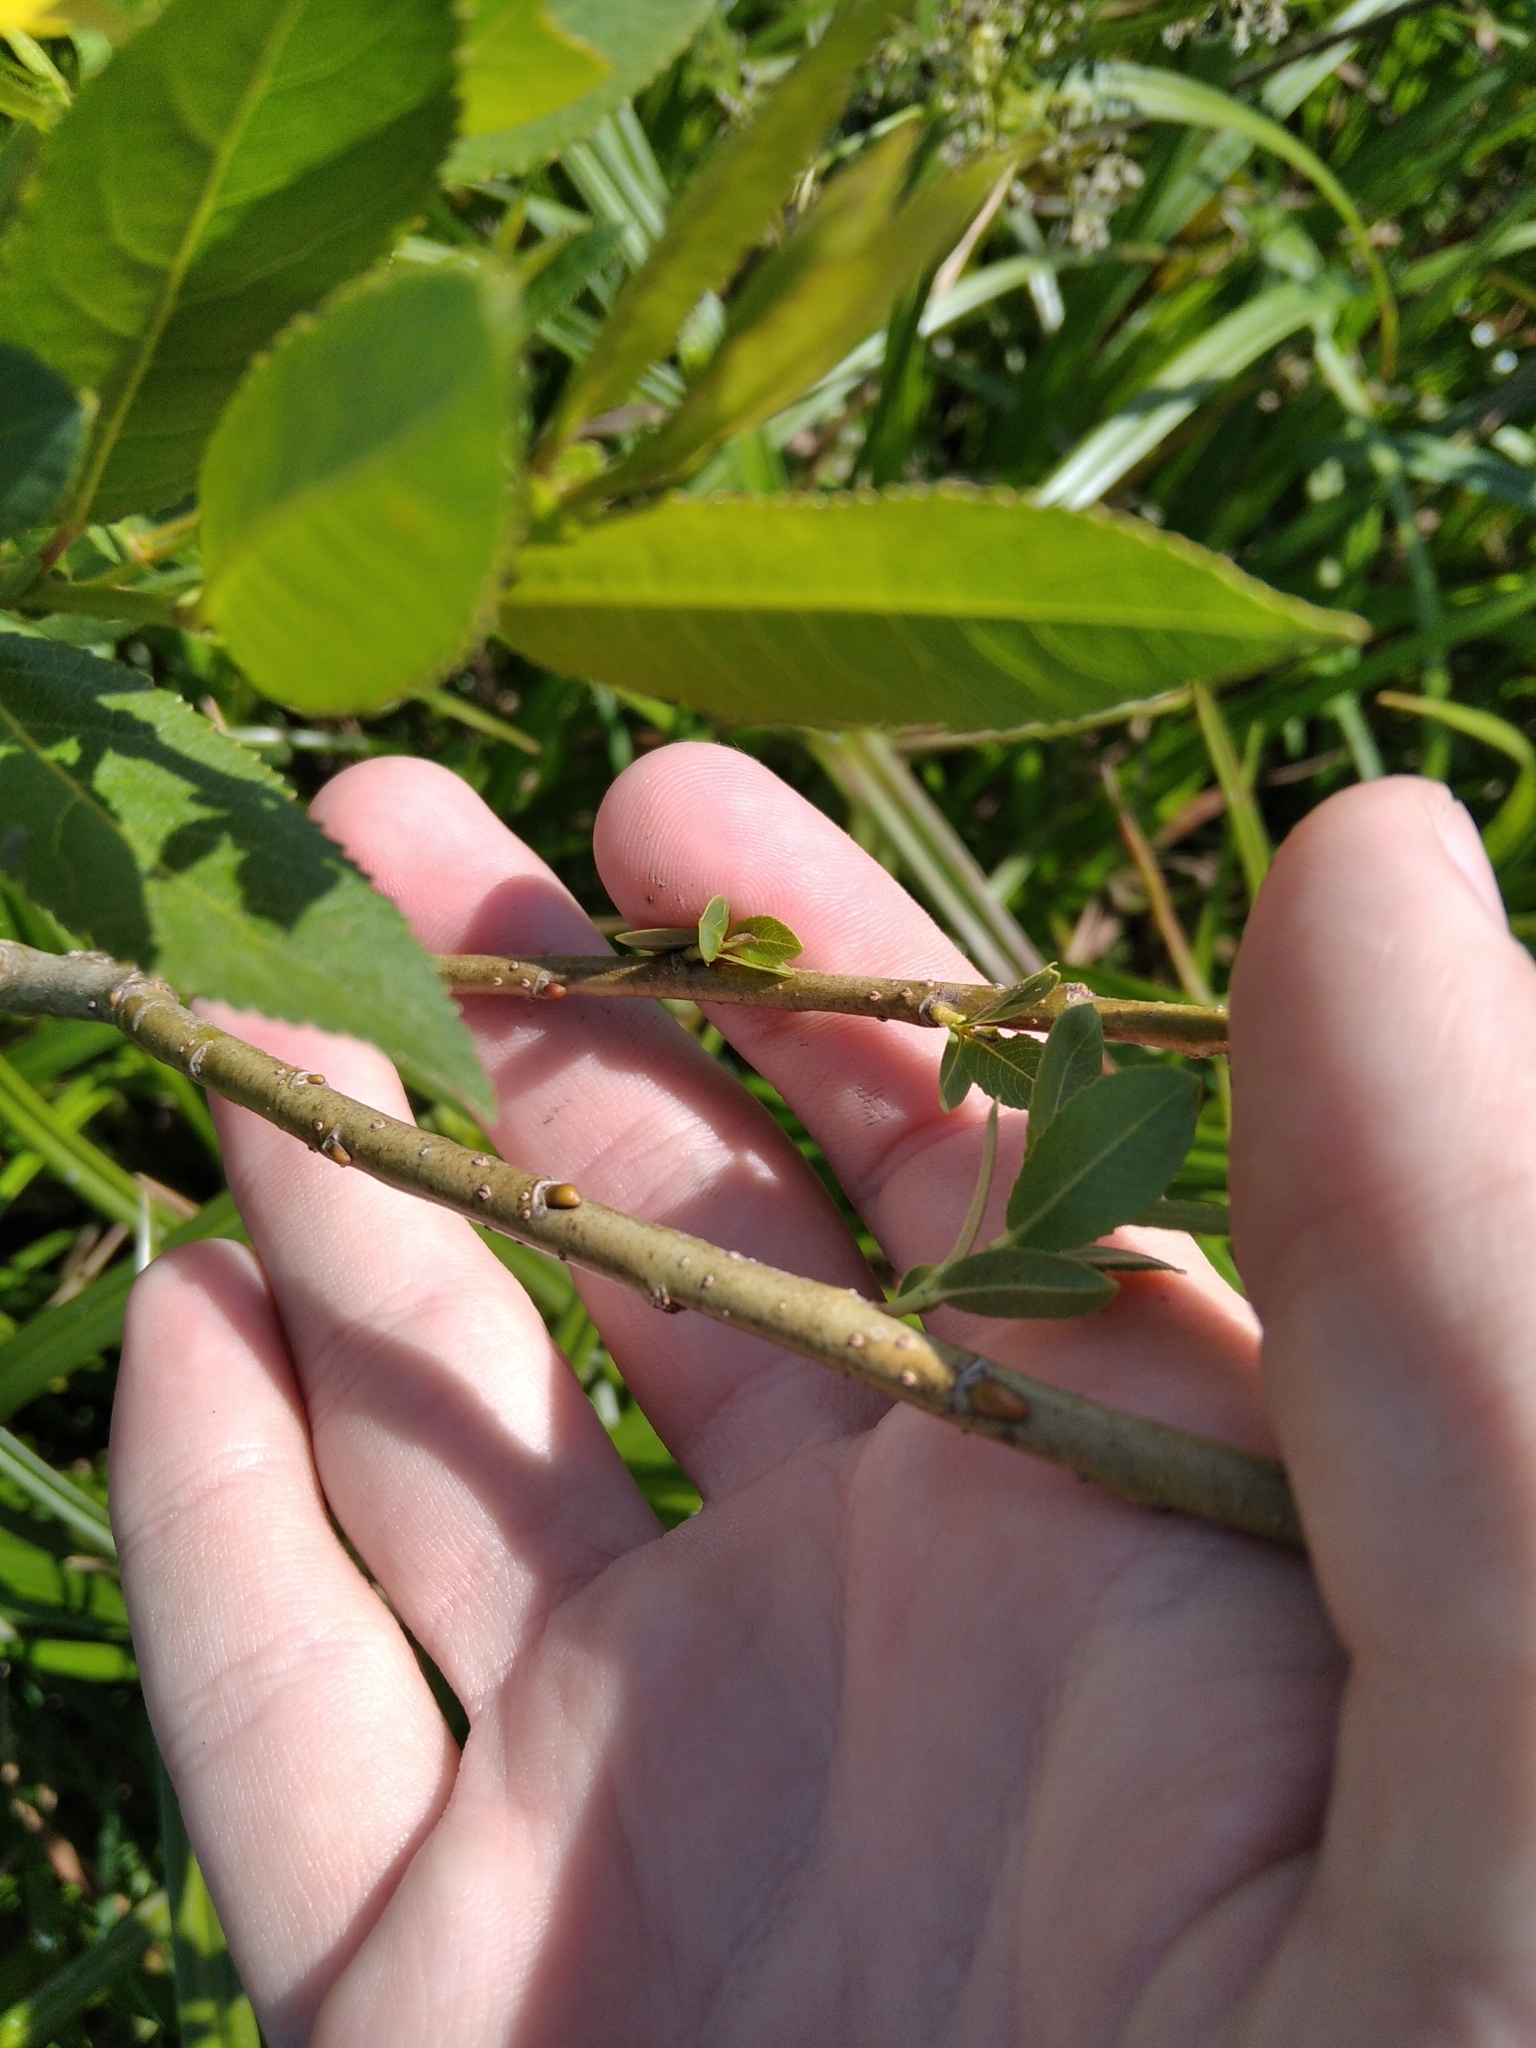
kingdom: Plantae
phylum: Tracheophyta
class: Magnoliopsida
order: Malpighiales
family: Salicaceae
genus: Salix
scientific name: Salix triandra
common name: Almond willow
